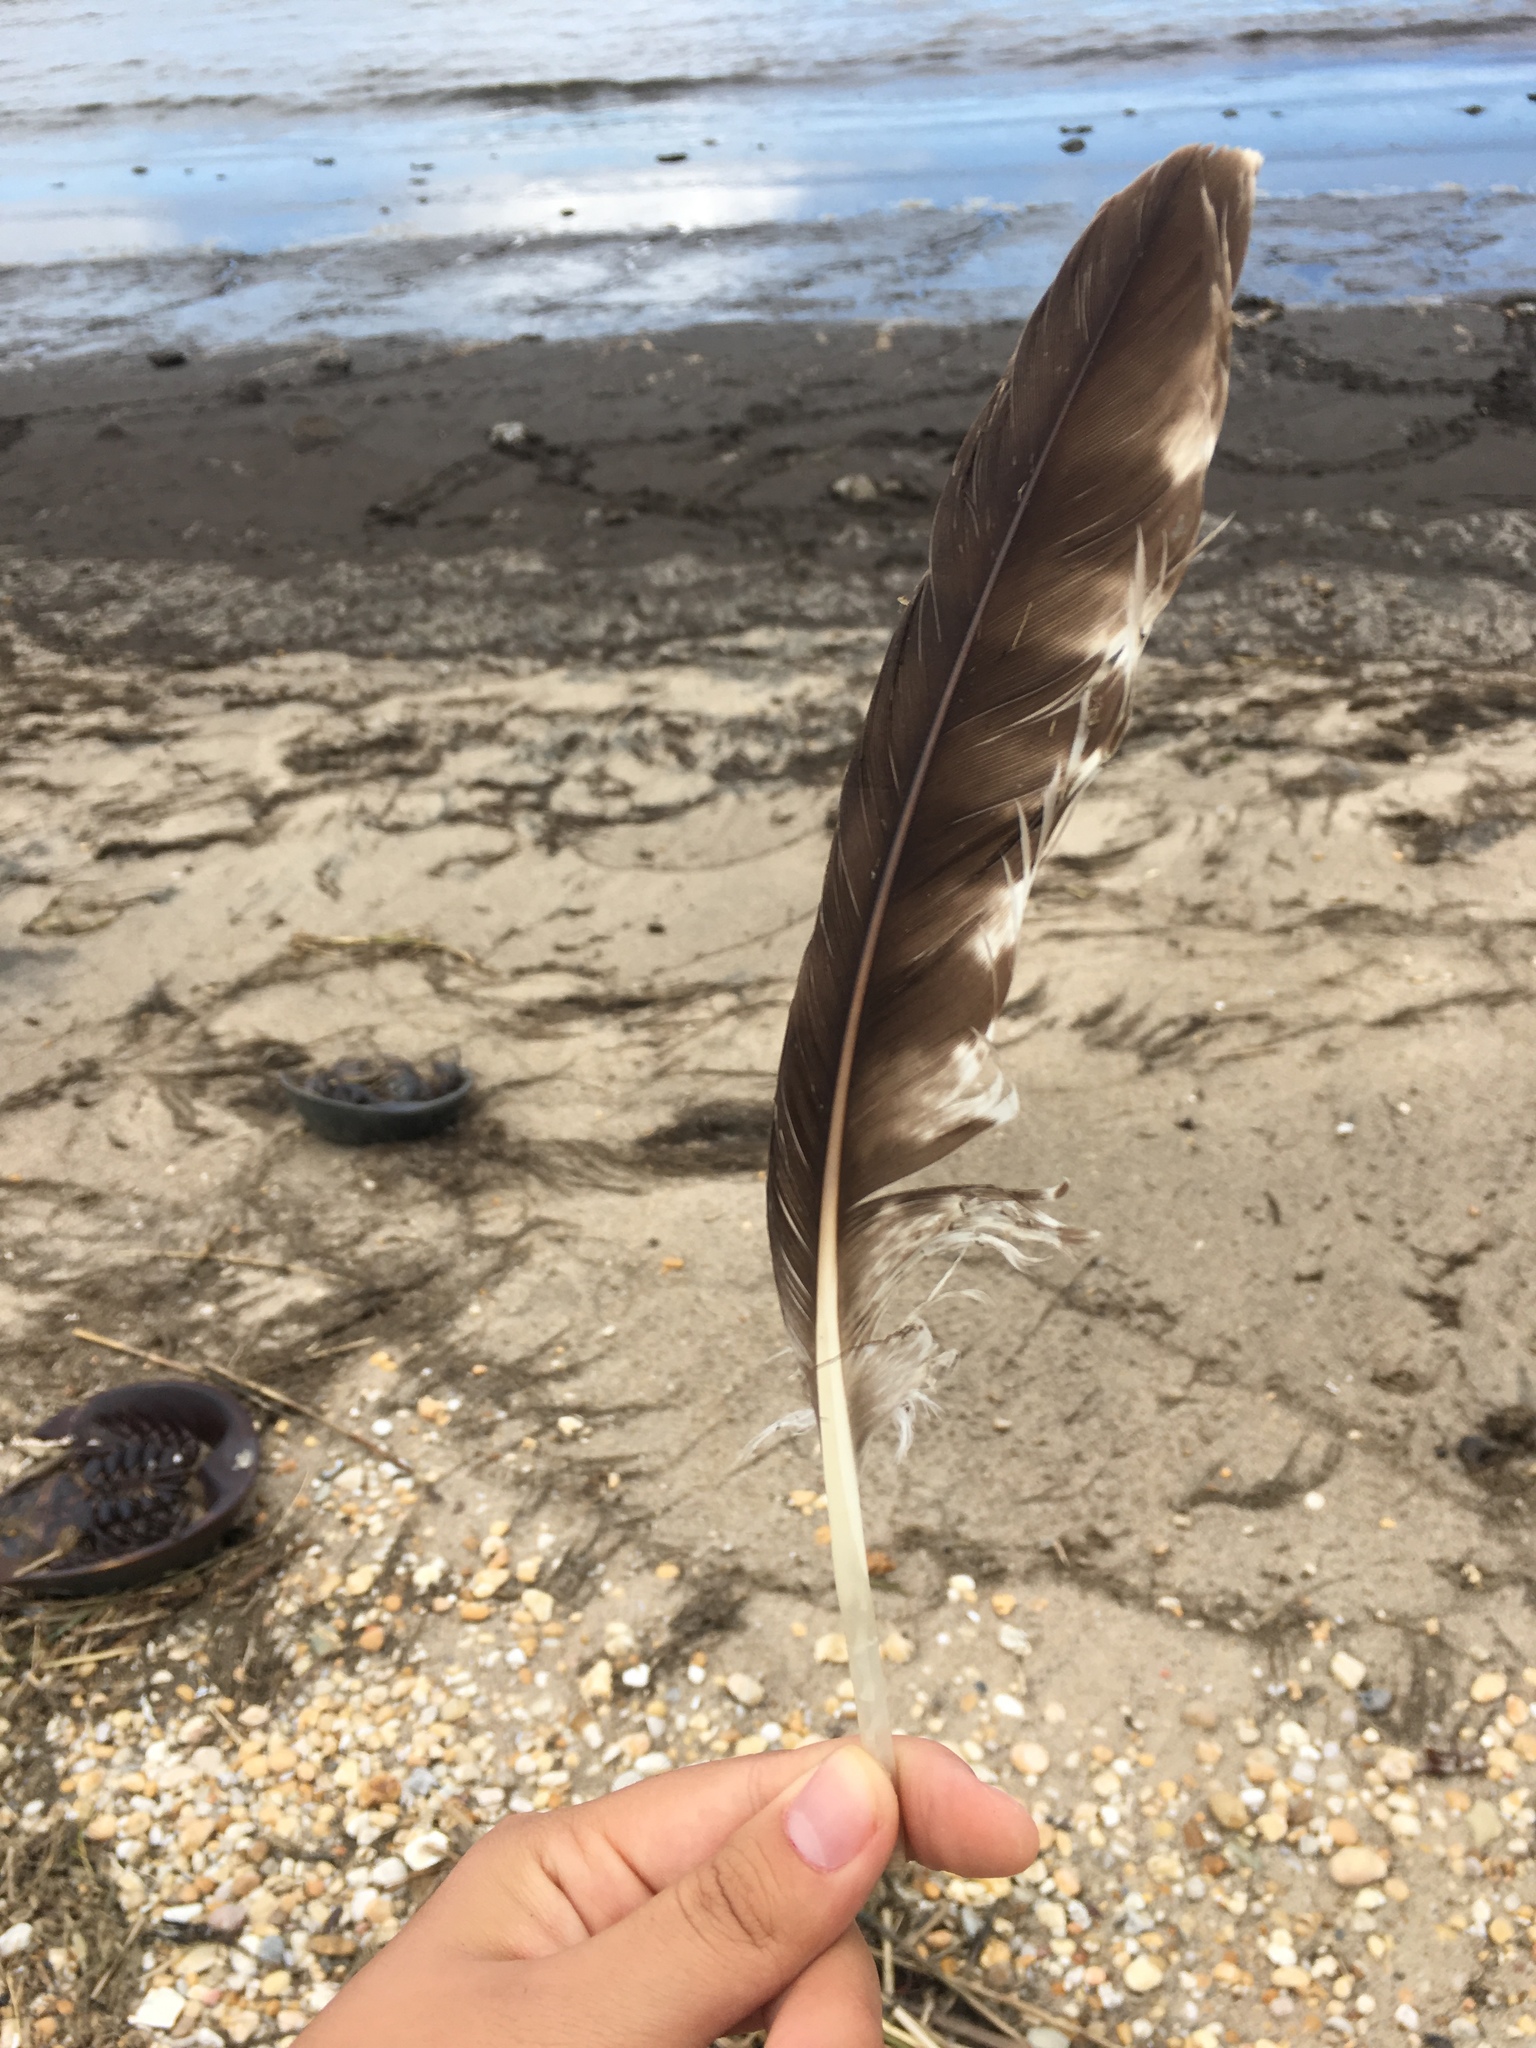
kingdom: Animalia
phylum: Chordata
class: Aves
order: Accipitriformes
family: Pandionidae
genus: Pandion
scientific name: Pandion haliaetus
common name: Osprey
